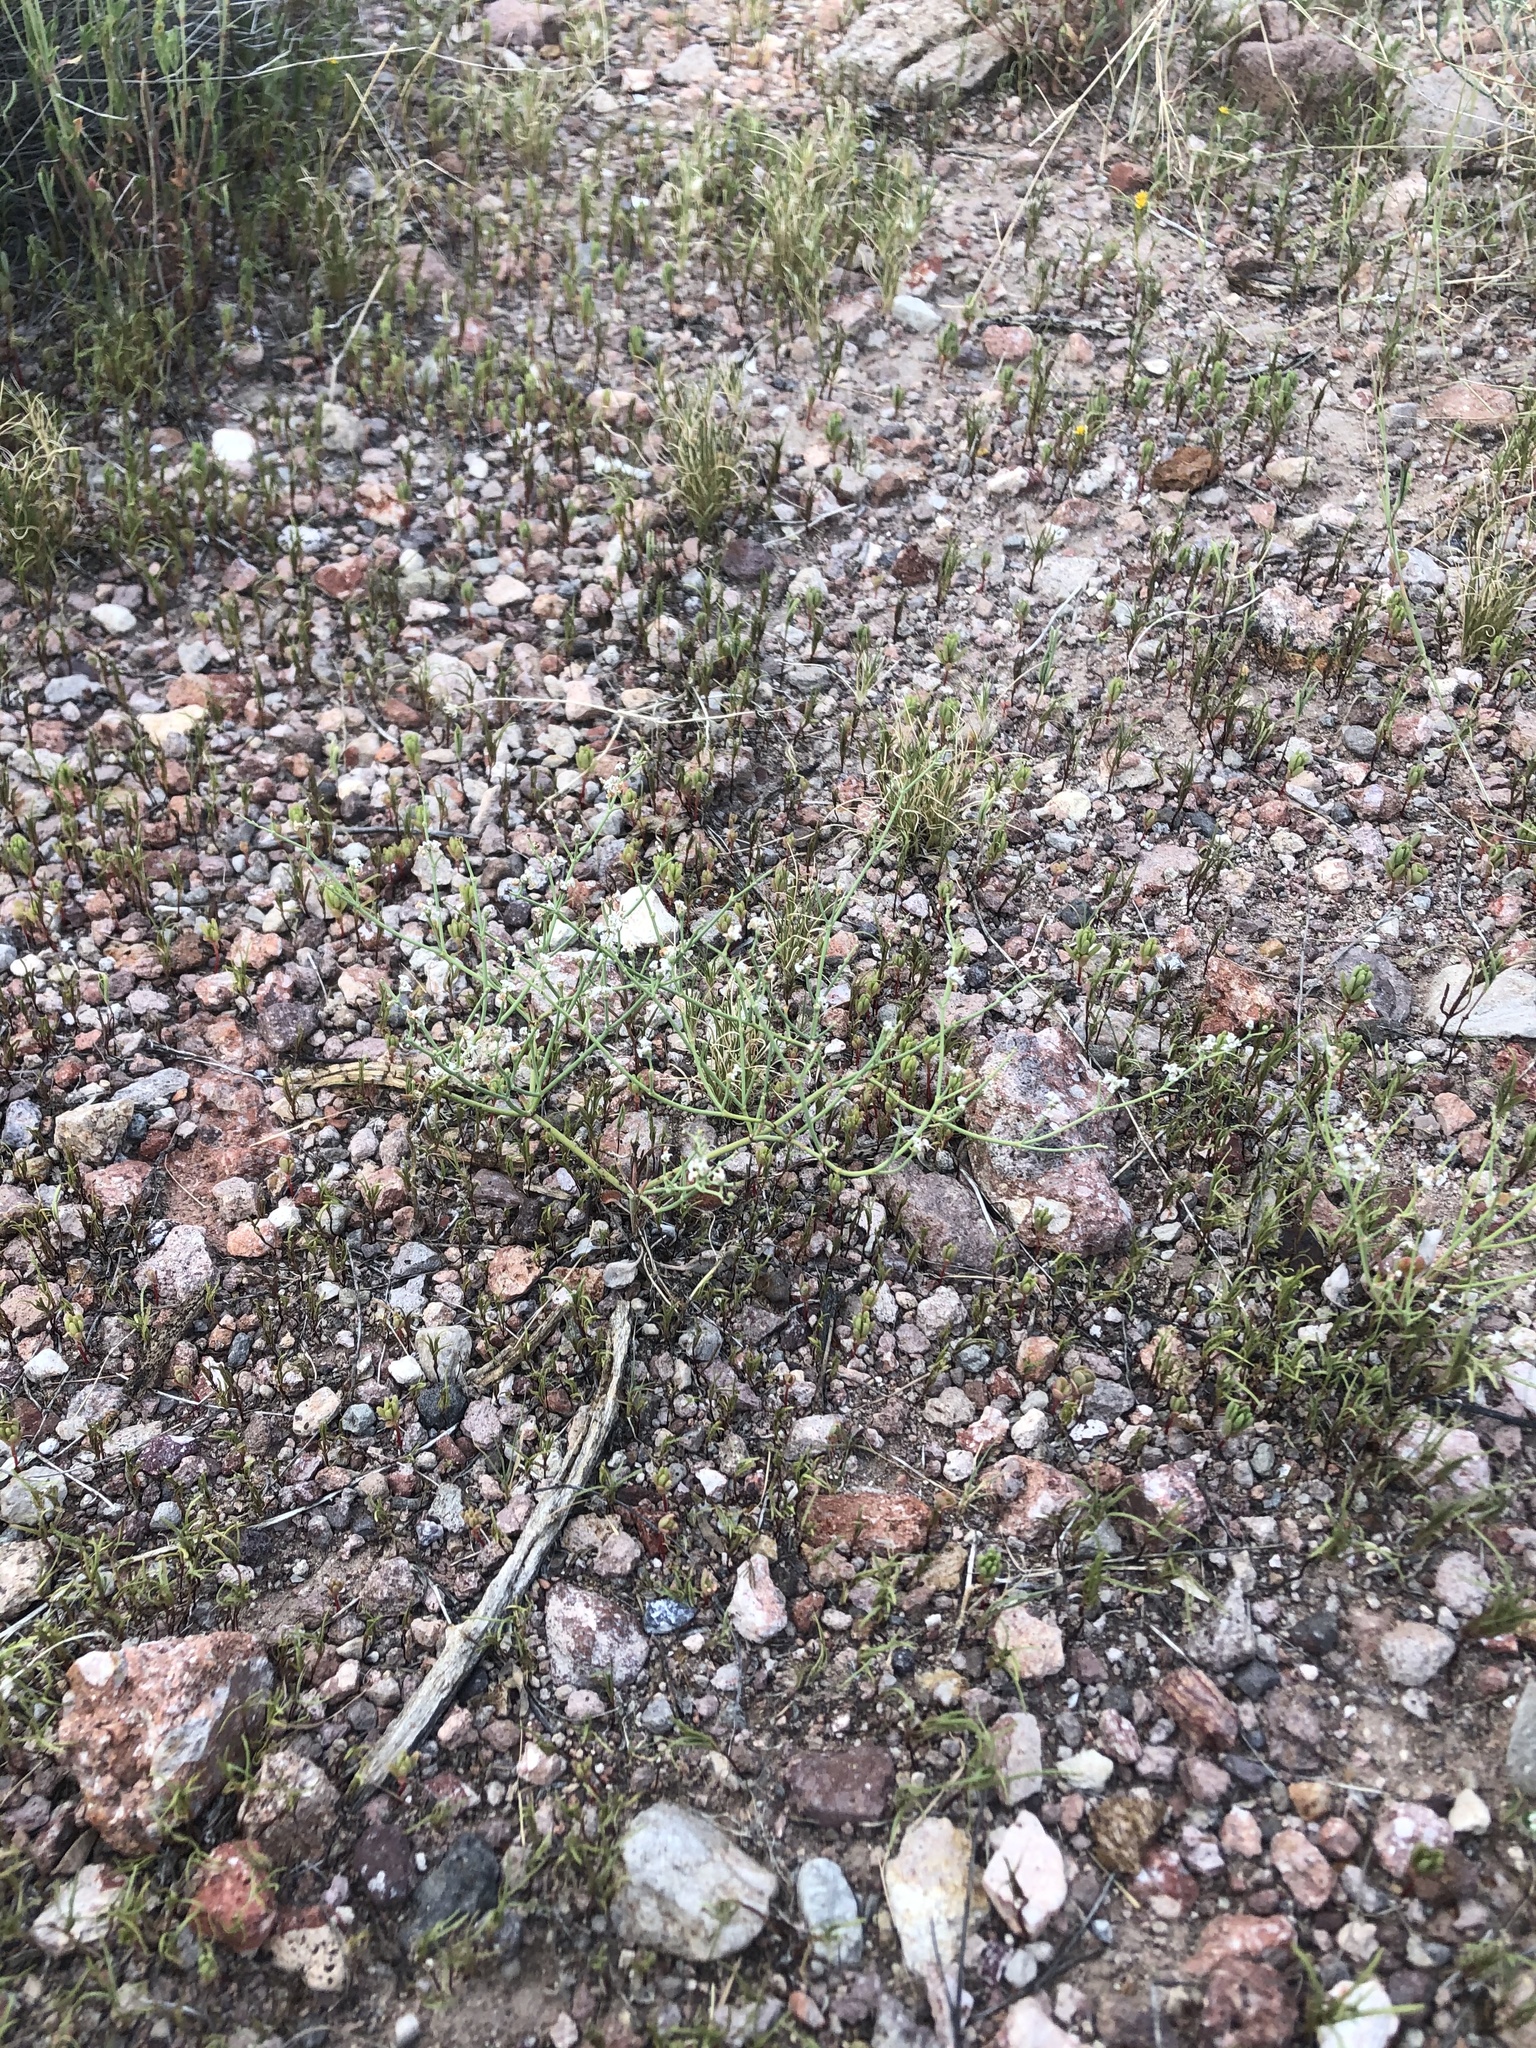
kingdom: Plantae
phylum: Tracheophyta
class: Magnoliopsida
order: Caryophyllales
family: Polygonaceae
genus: Eriogonum
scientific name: Eriogonum rotundifolium
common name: Round-leaf wild buckwheat
